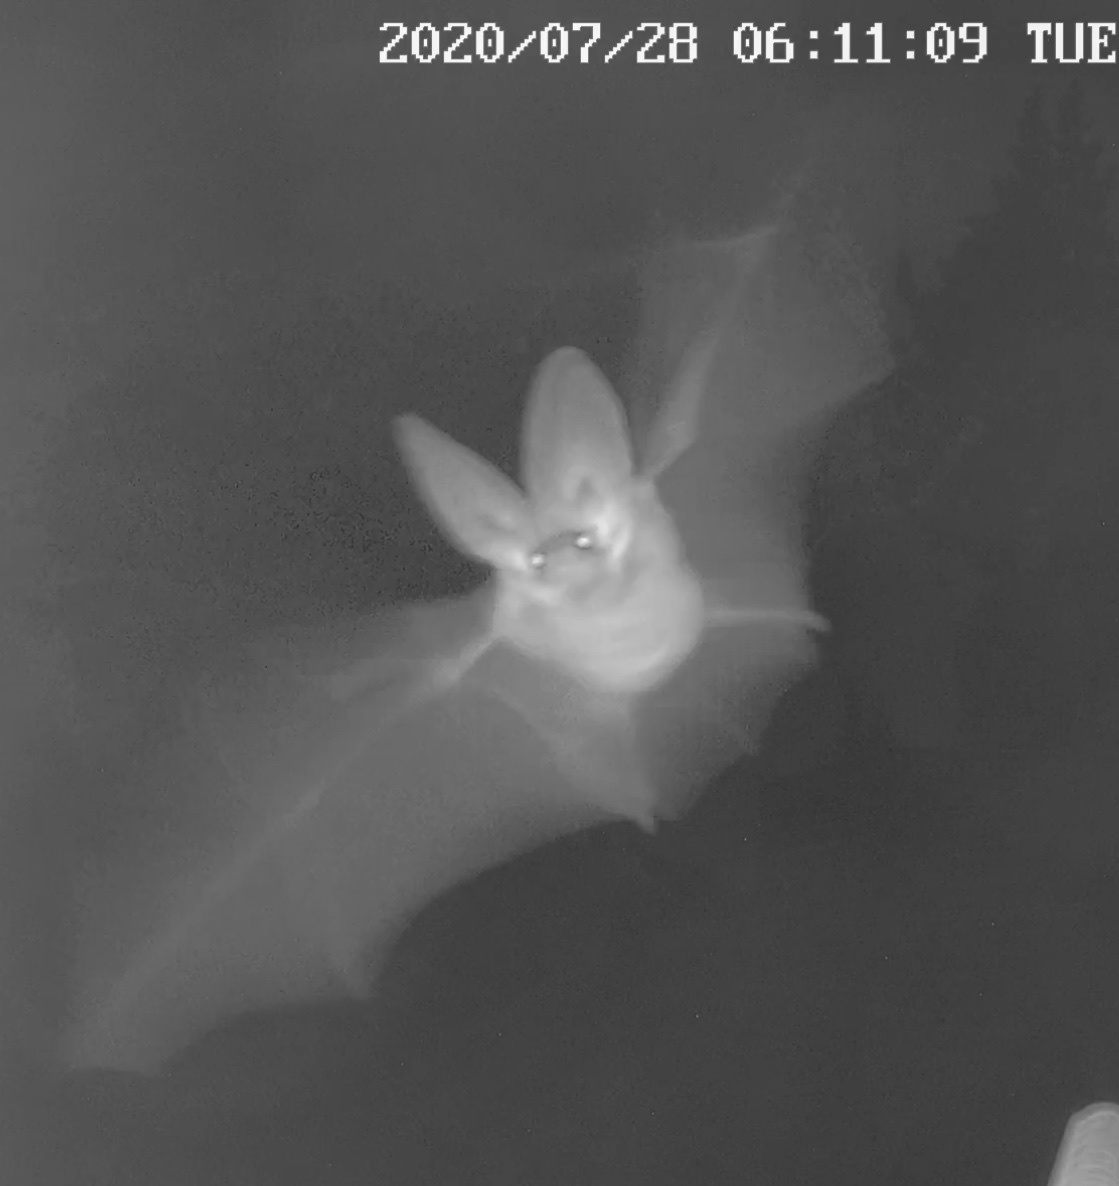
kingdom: Animalia
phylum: Chordata
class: Mammalia
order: Chiroptera
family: Vespertilionidae
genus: Plecotus
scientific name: Plecotus
